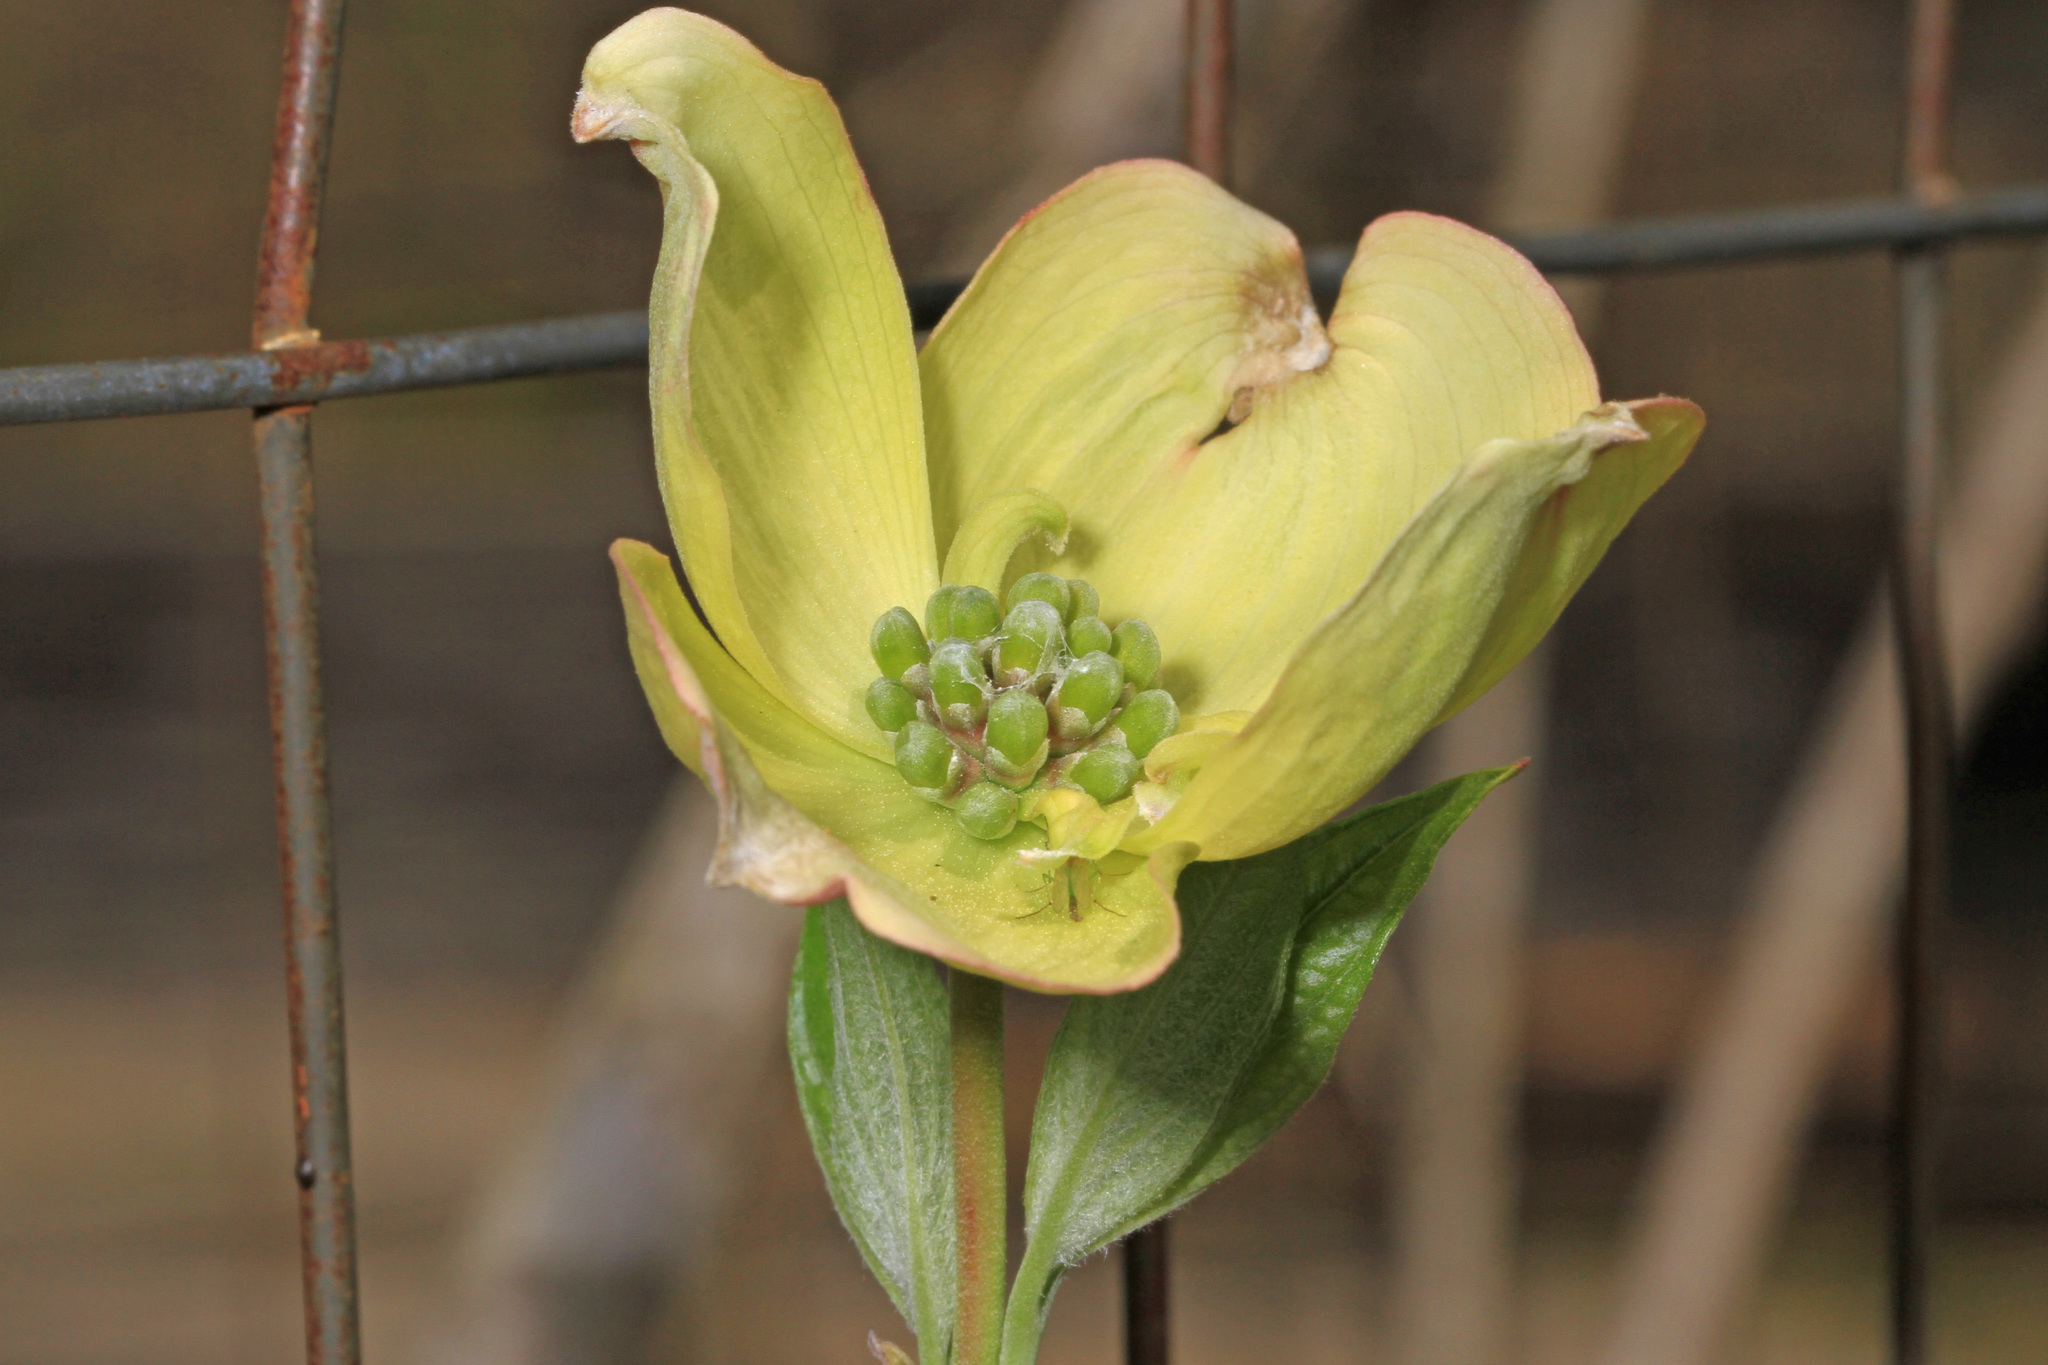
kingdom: Plantae
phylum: Tracheophyta
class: Magnoliopsida
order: Cornales
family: Cornaceae
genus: Cornus
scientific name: Cornus florida
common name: Flowering dogwood
